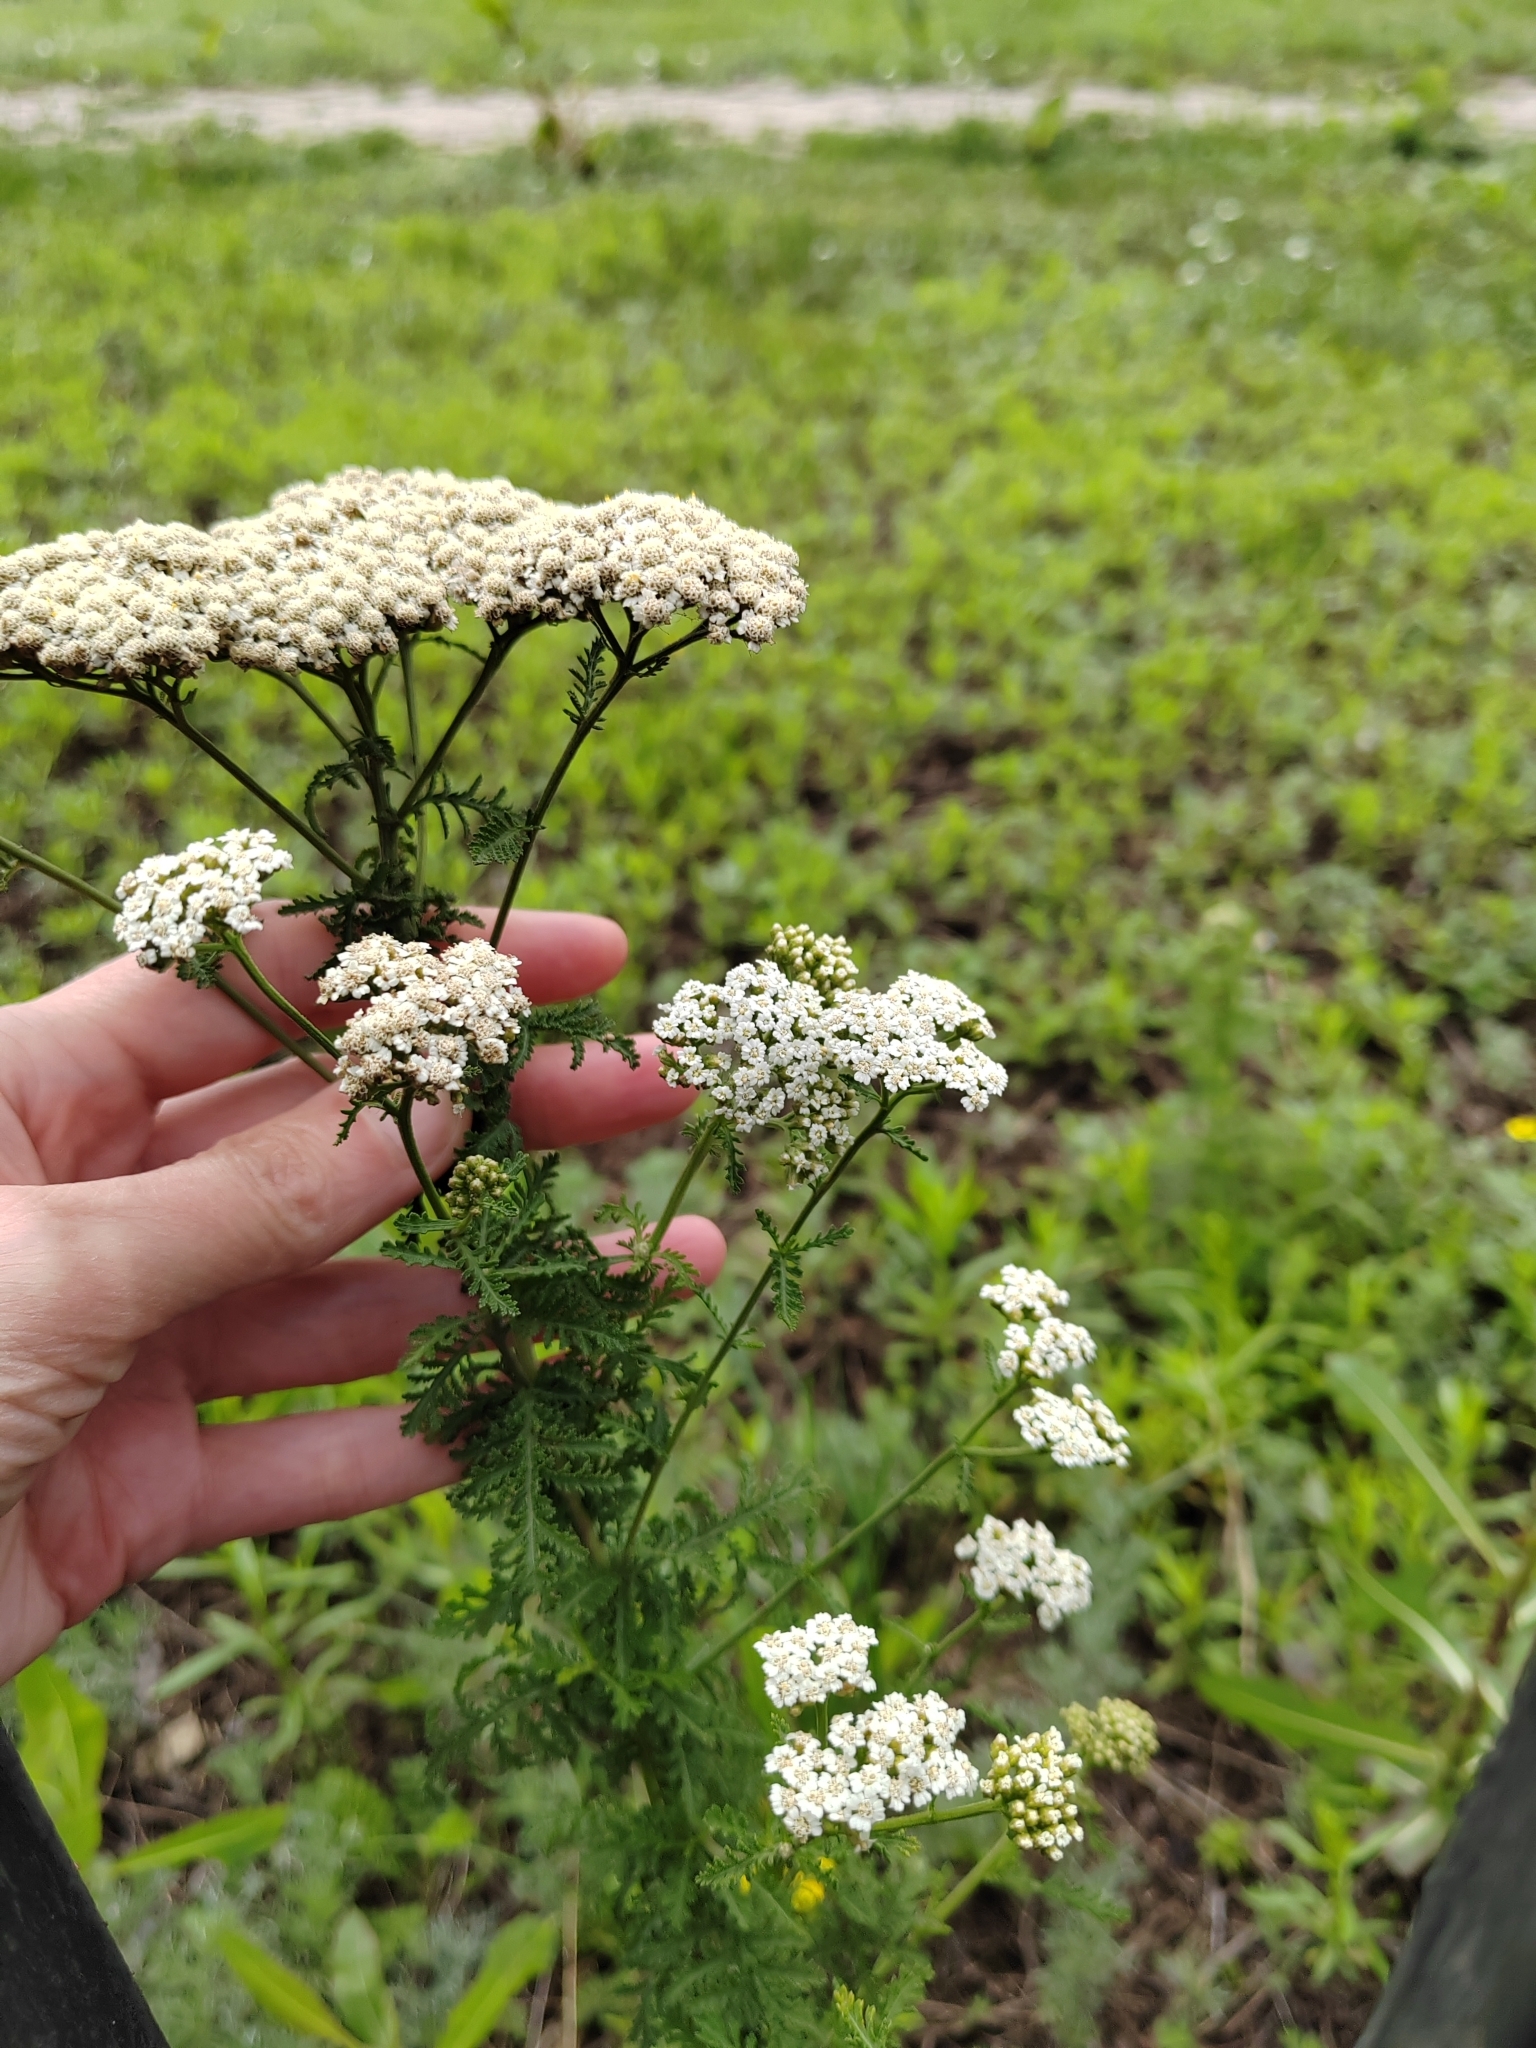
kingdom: Plantae
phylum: Tracheophyta
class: Magnoliopsida
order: Asterales
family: Asteraceae
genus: Achillea
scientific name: Achillea nobilis
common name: Noble yarrow
